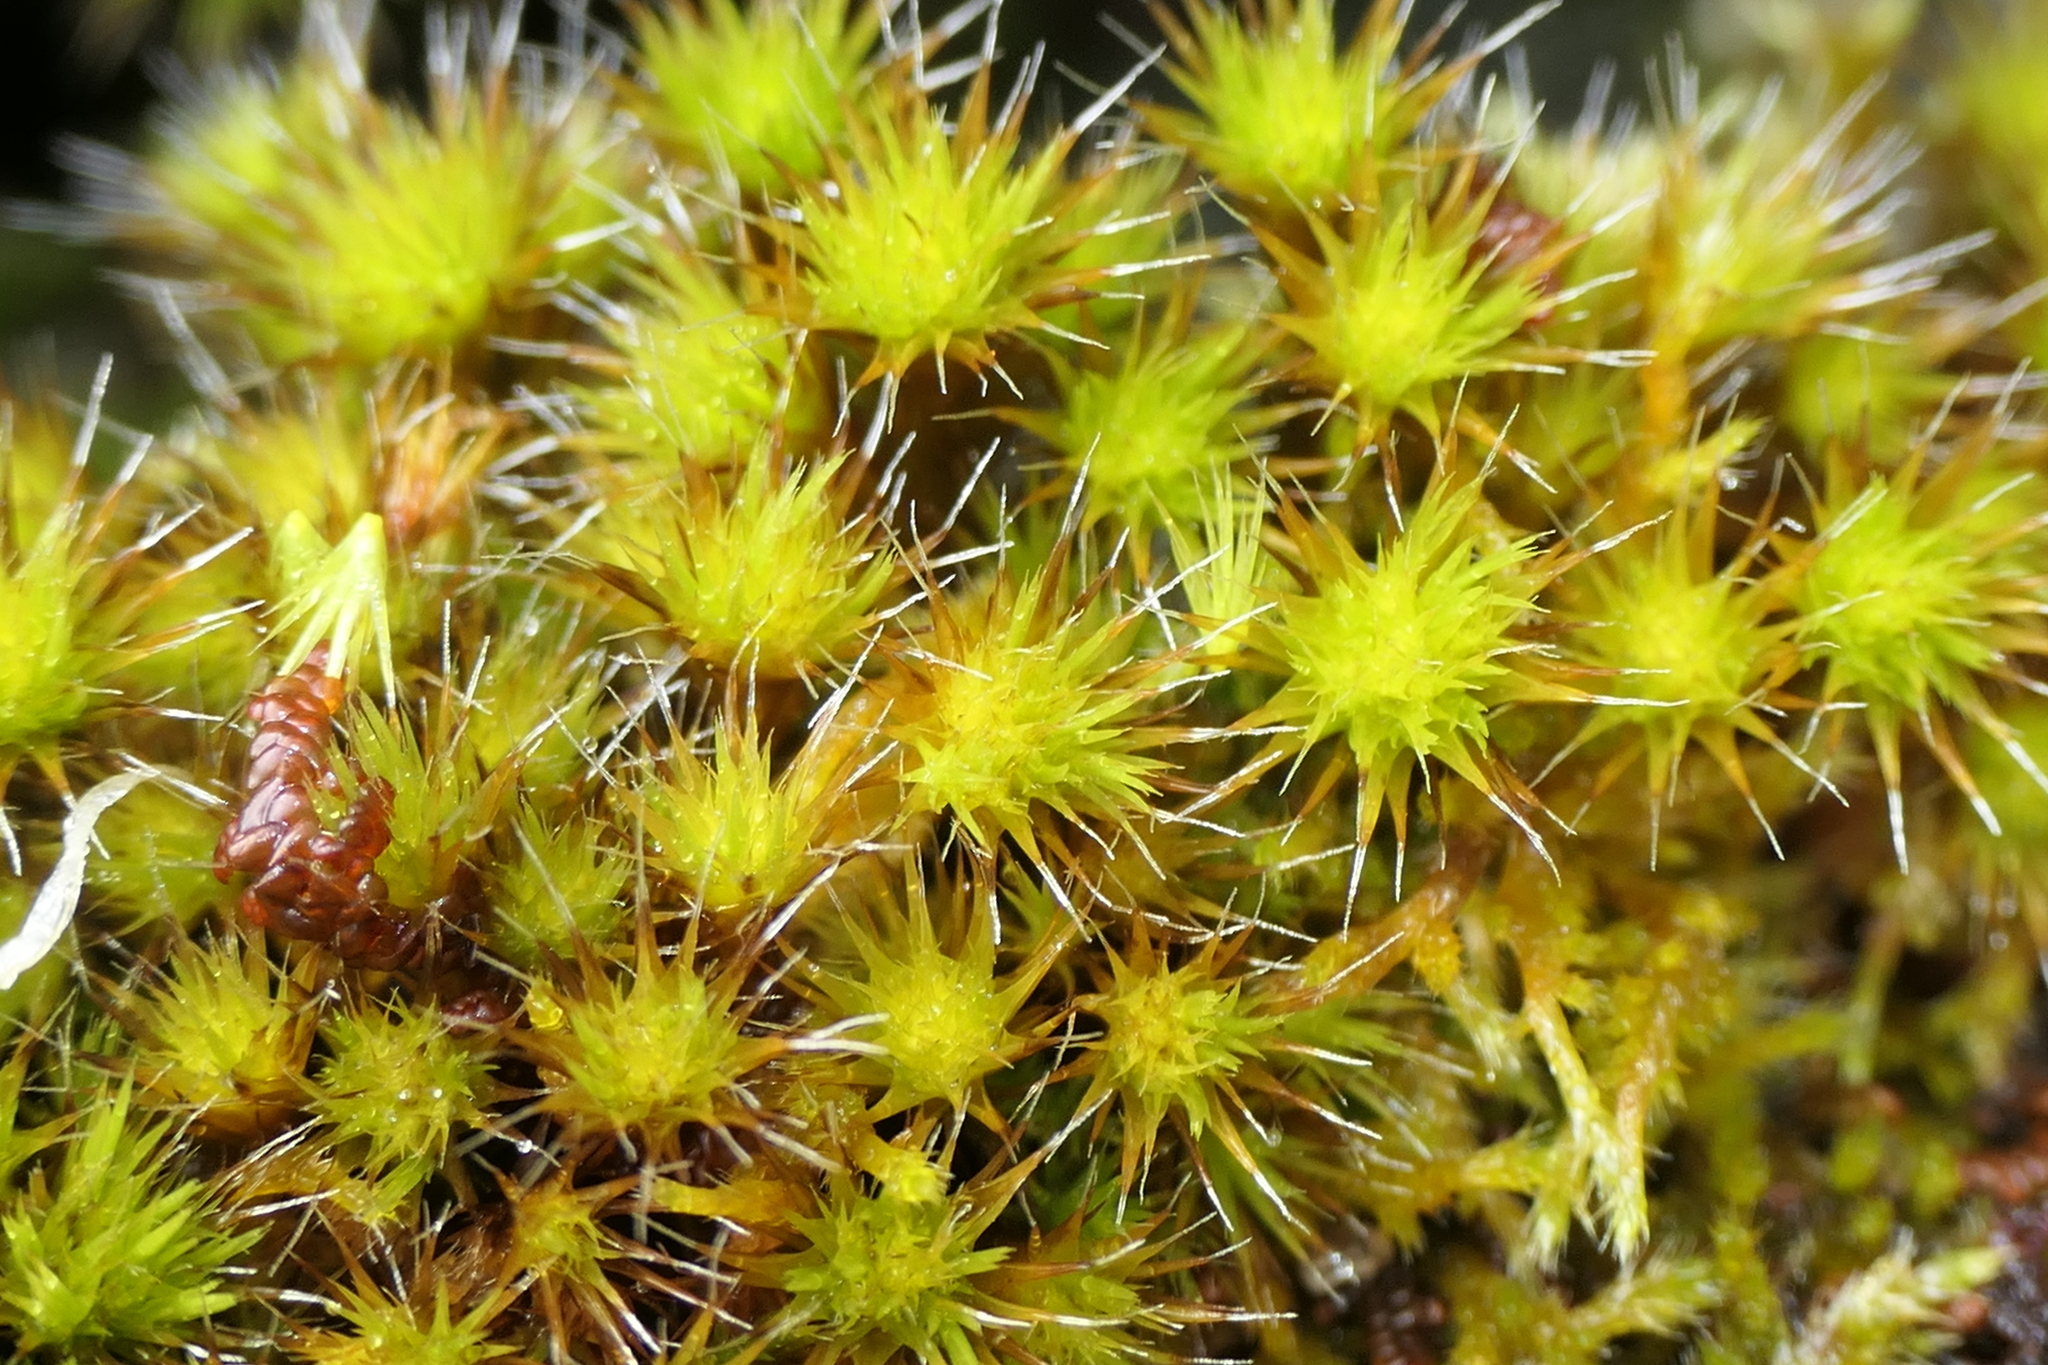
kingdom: Plantae
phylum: Bryophyta
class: Bryopsida
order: Dicranales
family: Leucobryaceae
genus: Campylopus
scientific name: Campylopus pilifer
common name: Campylopus moss
